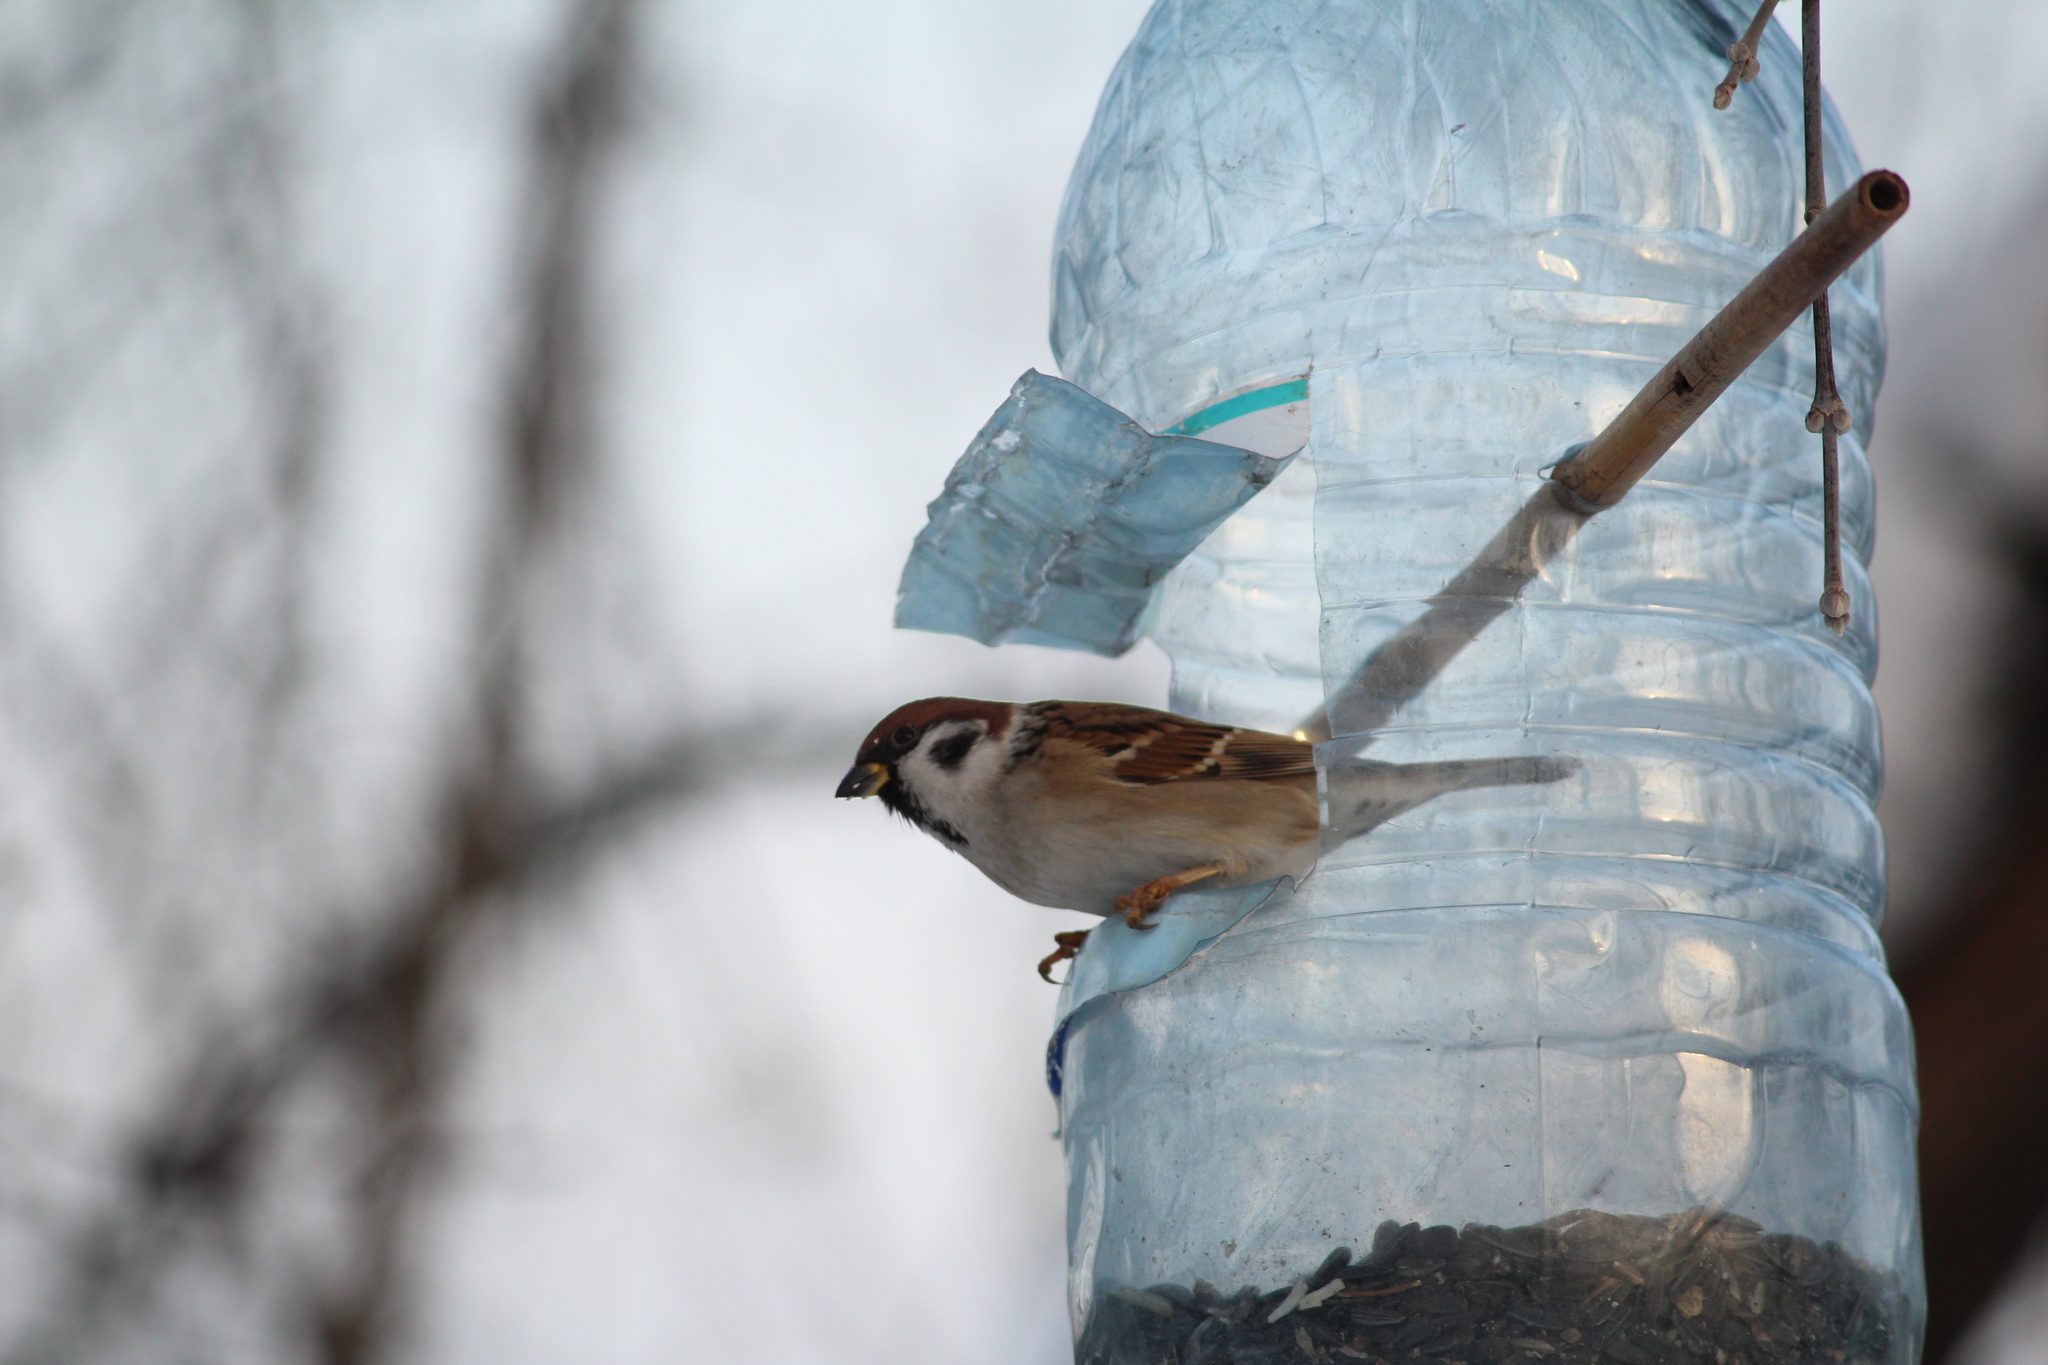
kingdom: Animalia
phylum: Chordata
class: Aves
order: Passeriformes
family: Passeridae
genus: Passer
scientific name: Passer montanus
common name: Eurasian tree sparrow
